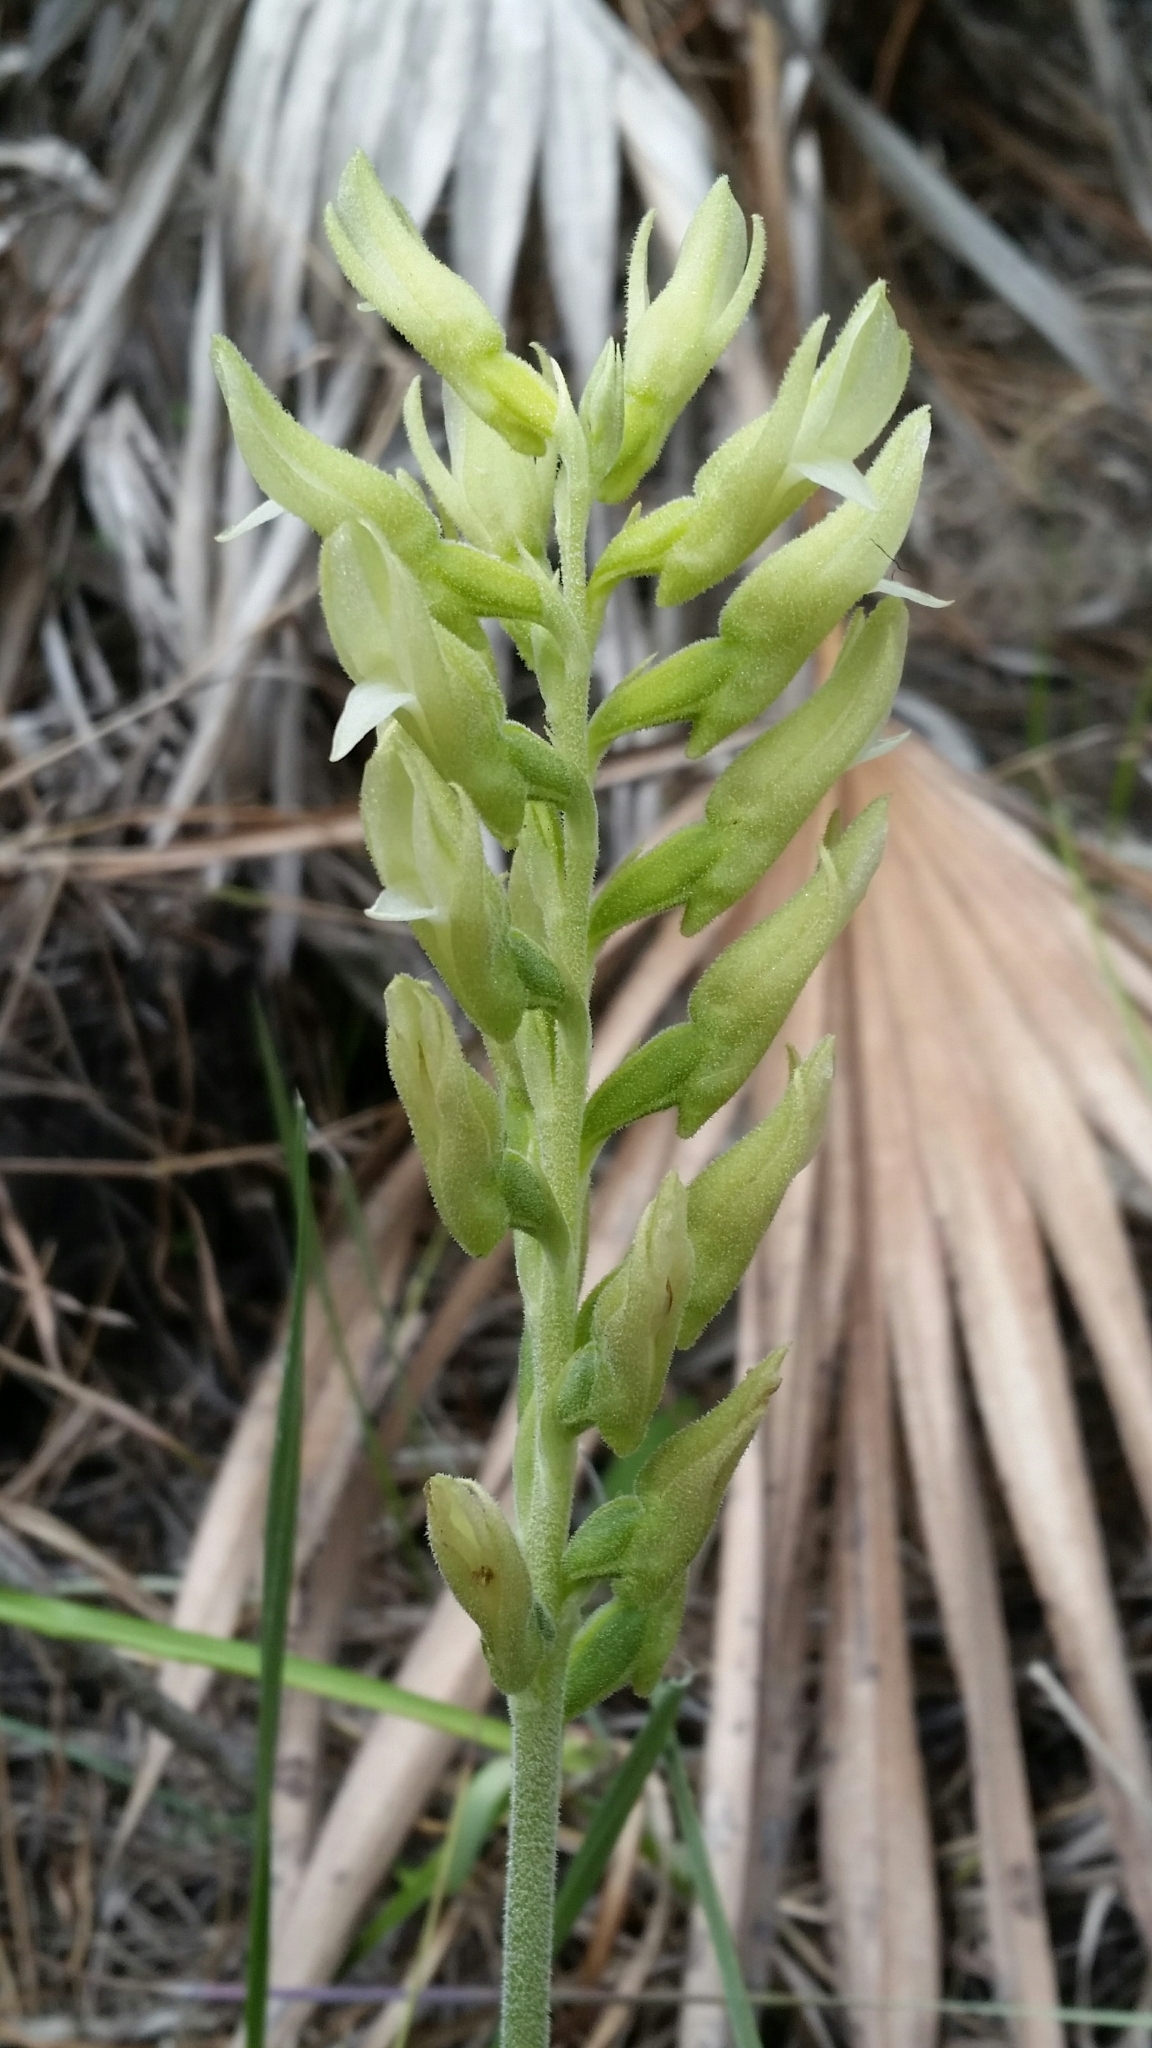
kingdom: Plantae
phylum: Tracheophyta
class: Liliopsida
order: Asparagales
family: Orchidaceae
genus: Sacoila
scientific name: Sacoila lanceolata
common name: Leafless beaked ladiestresses
